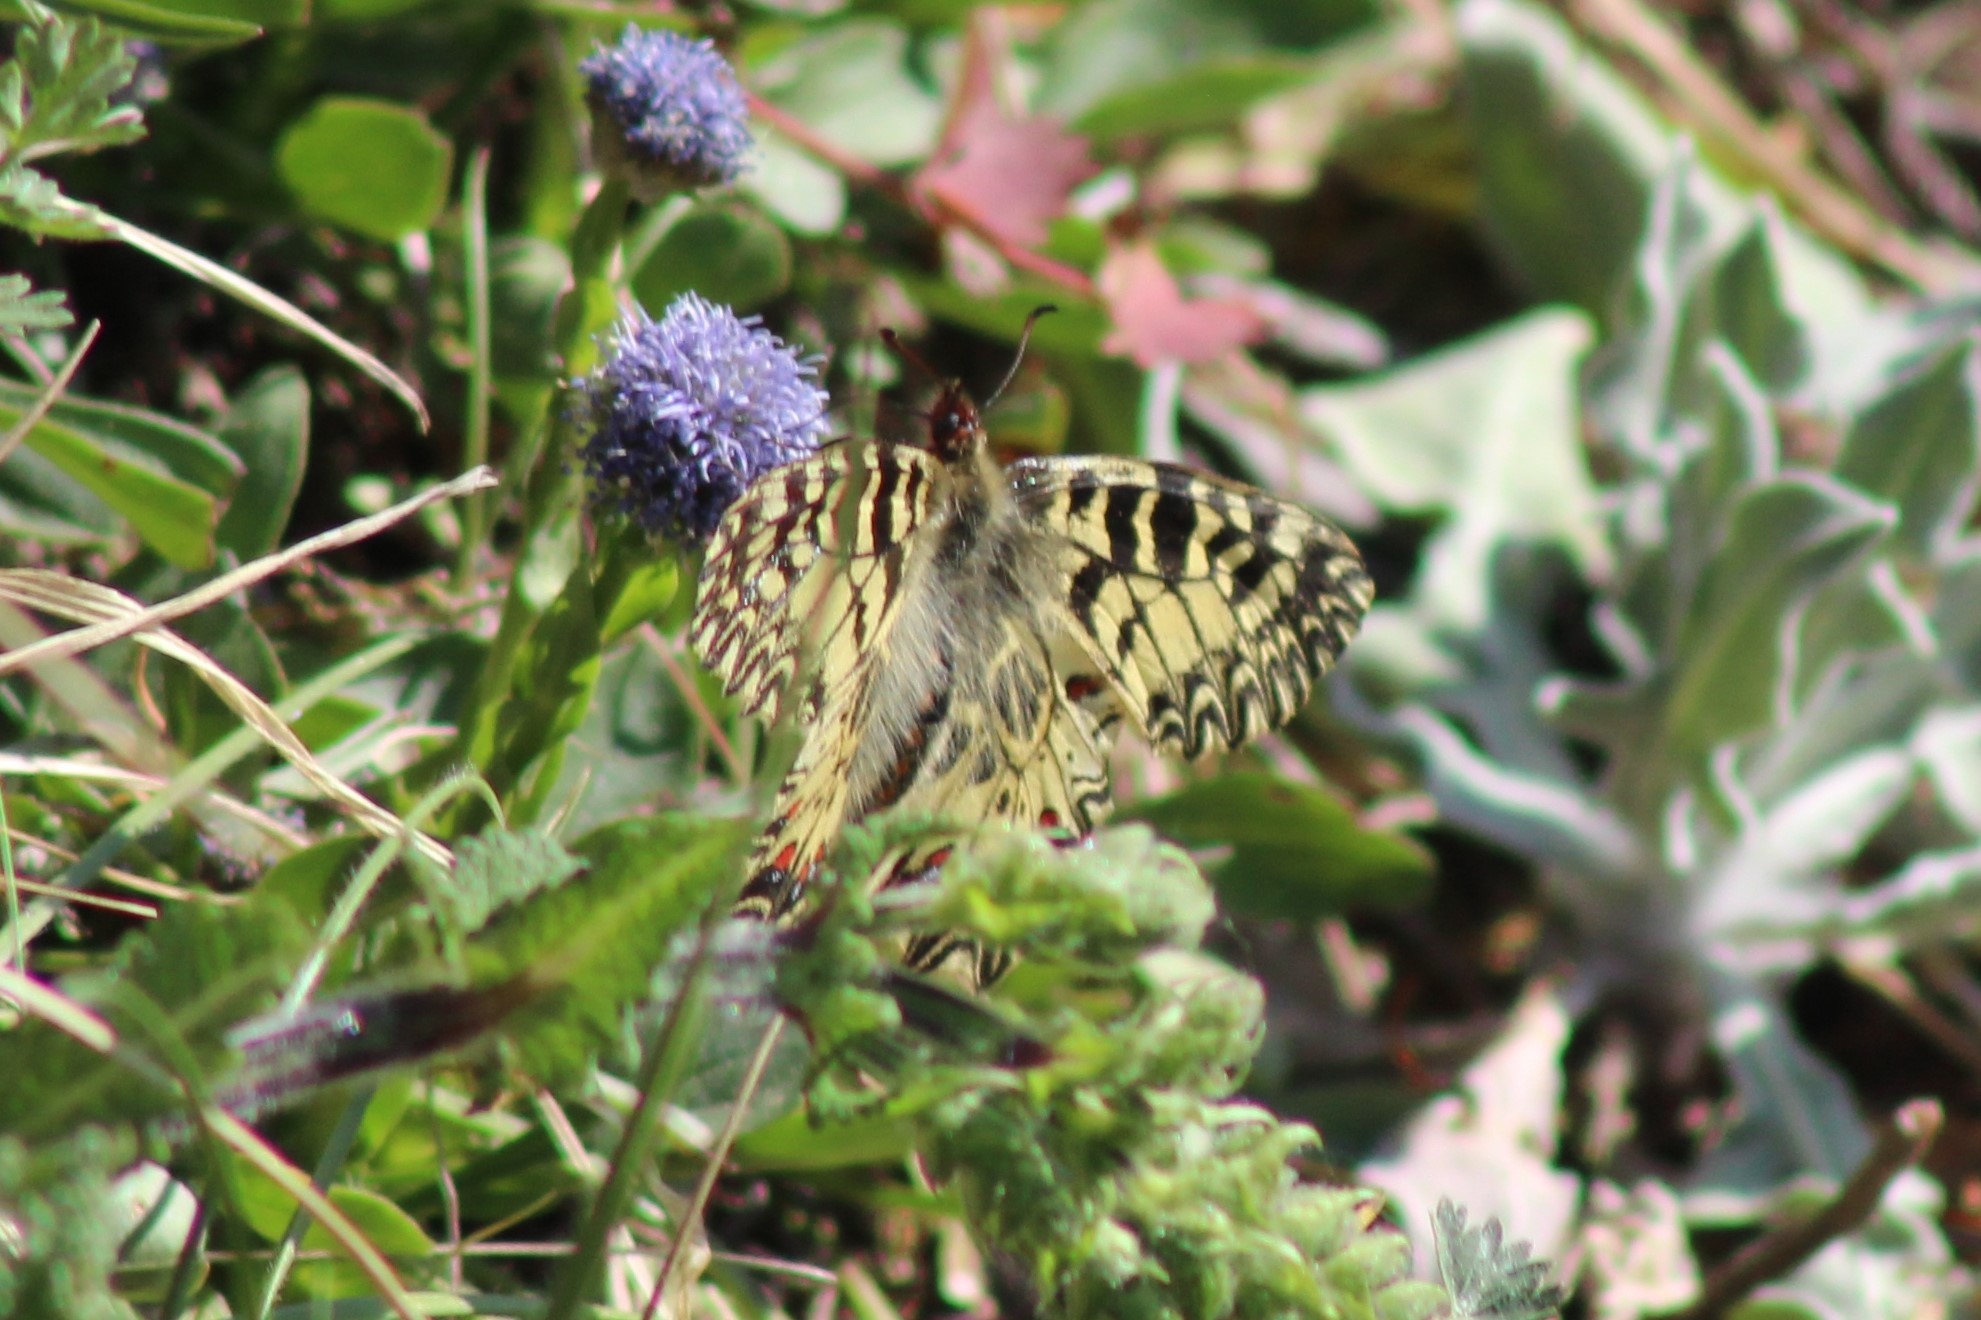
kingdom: Animalia
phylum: Arthropoda
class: Insecta
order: Lepidoptera
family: Papilionidae
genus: Zerynthia
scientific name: Zerynthia polyxena
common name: Southern festoon
